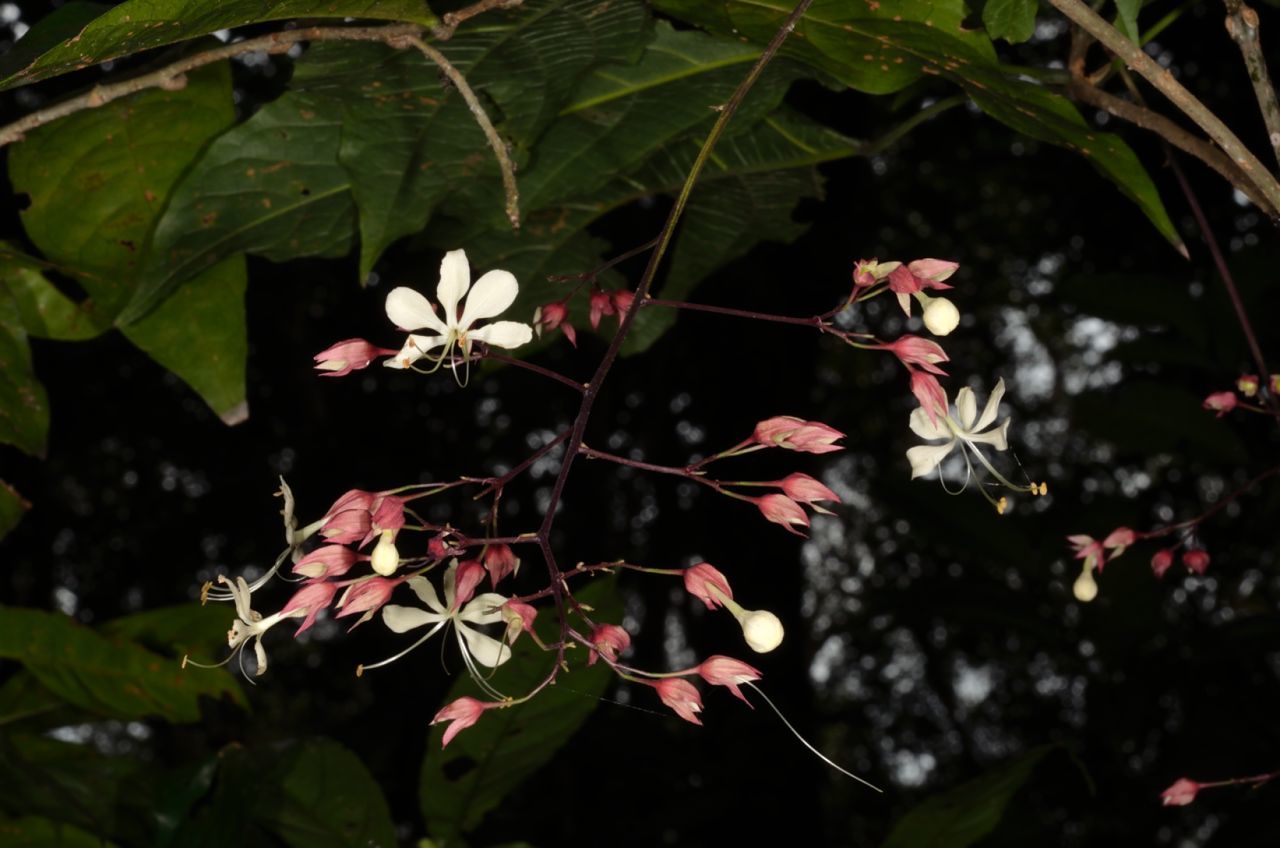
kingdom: Plantae
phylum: Tracheophyta
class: Magnoliopsida
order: Lamiales
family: Lamiaceae
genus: Clerodendrum
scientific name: Clerodendrum schmidtii
